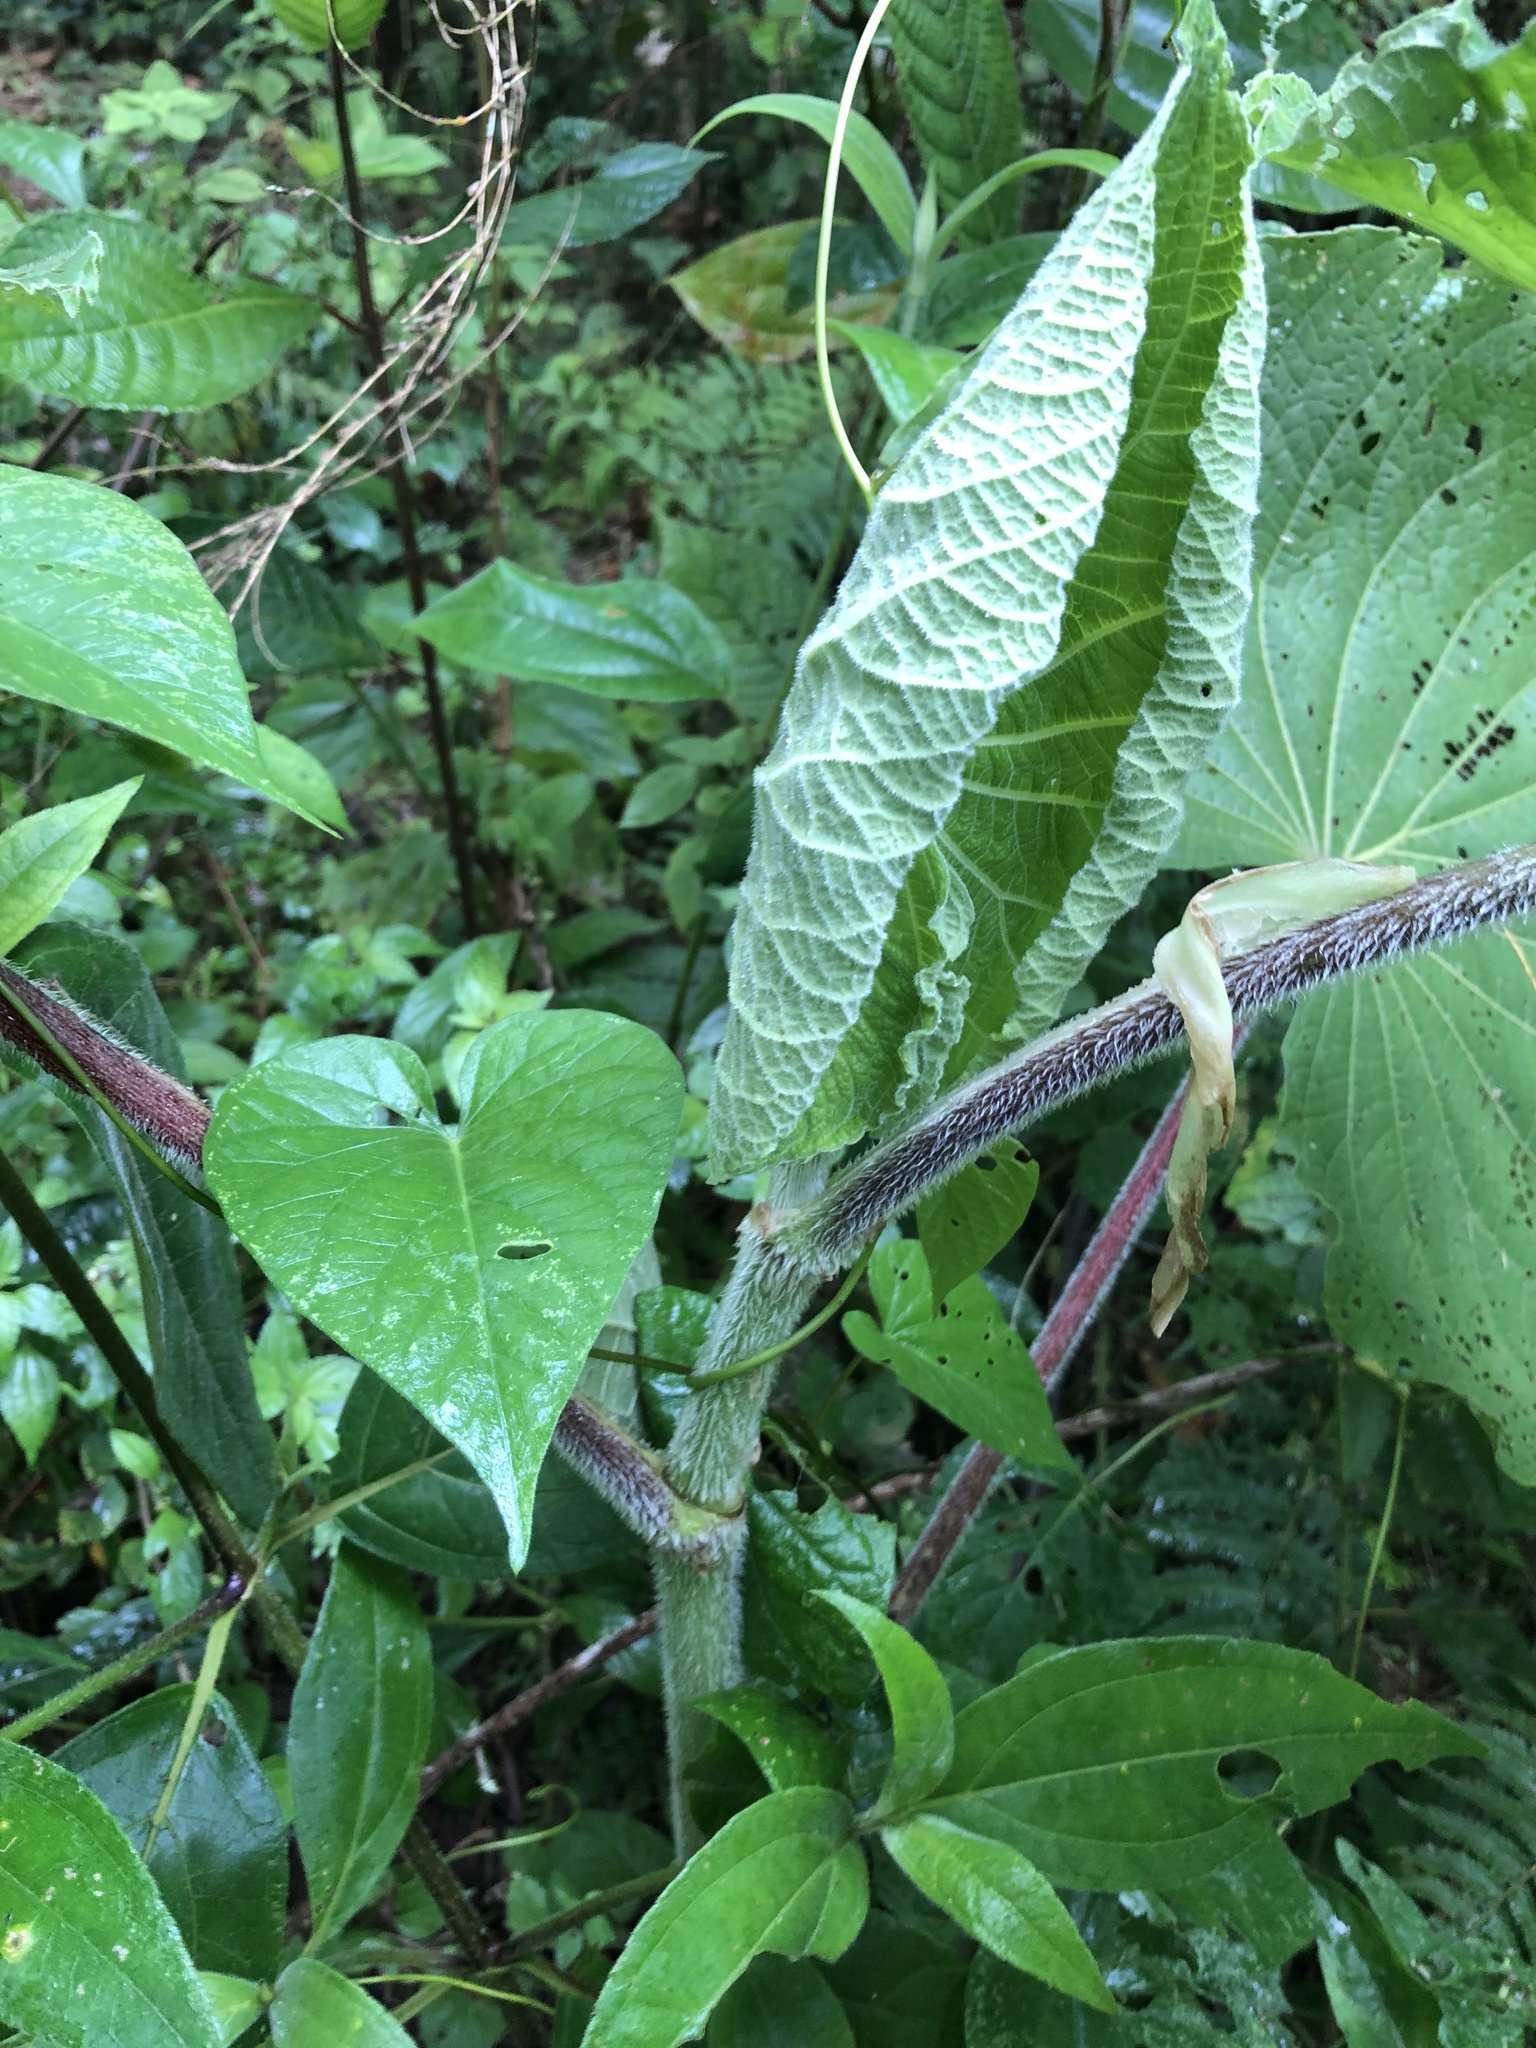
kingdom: Plantae
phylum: Tracheophyta
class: Magnoliopsida
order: Piperales
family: Piperaceae
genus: Piper
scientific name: Piper umbellatum
